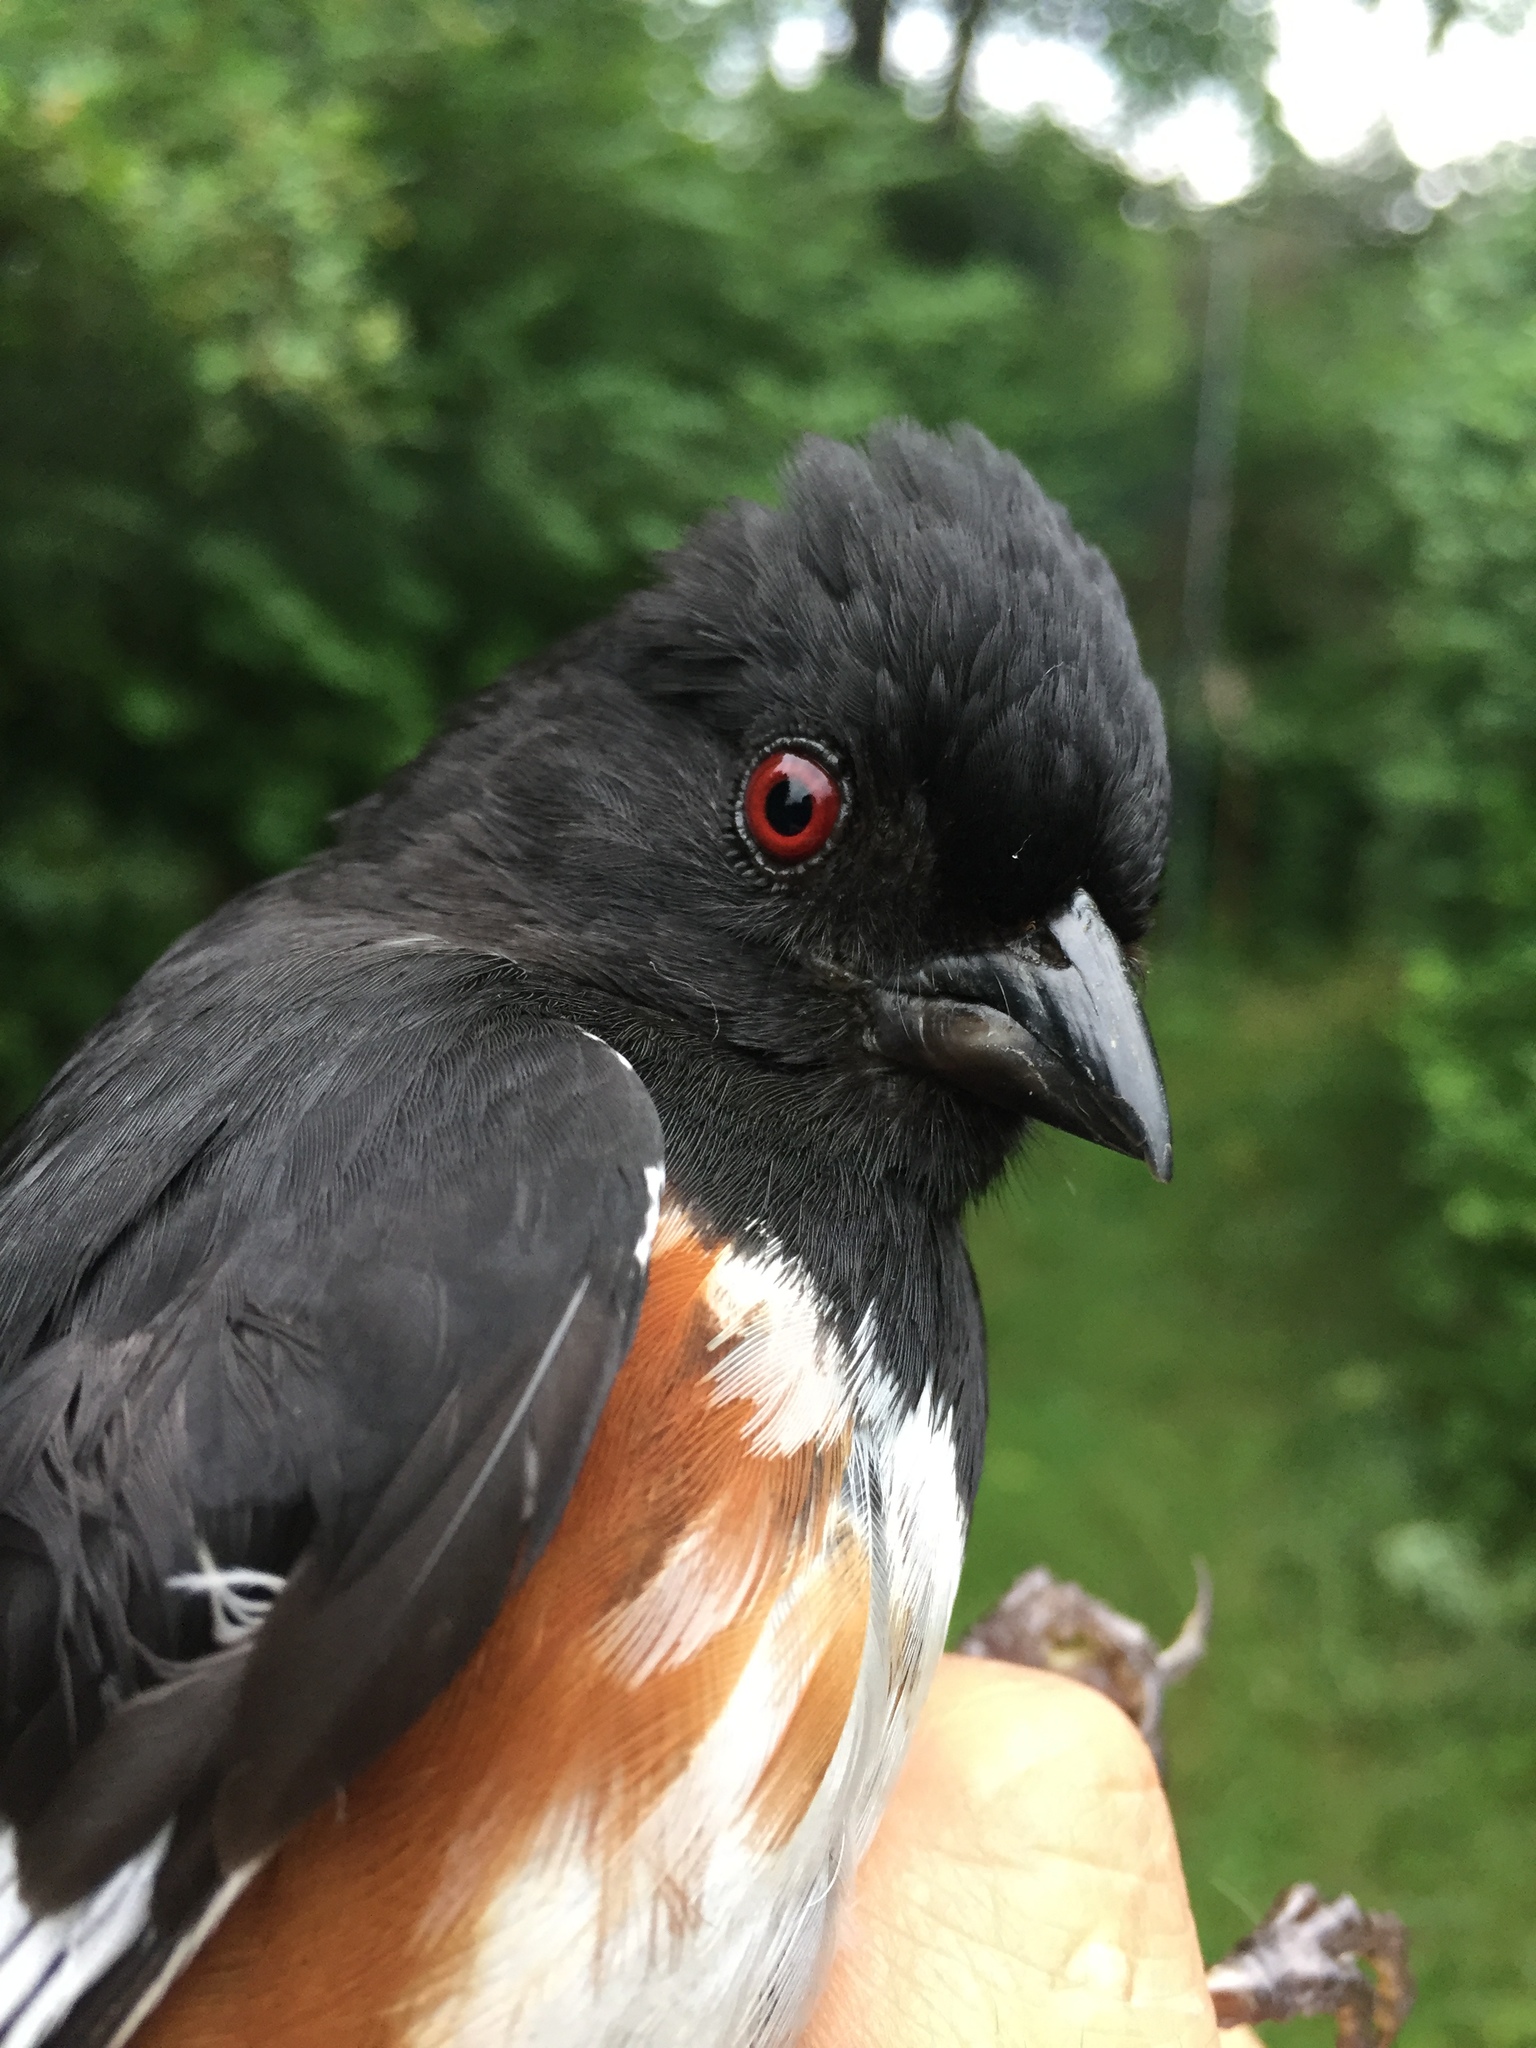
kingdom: Animalia
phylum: Chordata
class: Aves
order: Passeriformes
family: Passerellidae
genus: Pipilo
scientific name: Pipilo erythrophthalmus
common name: Eastern towhee
